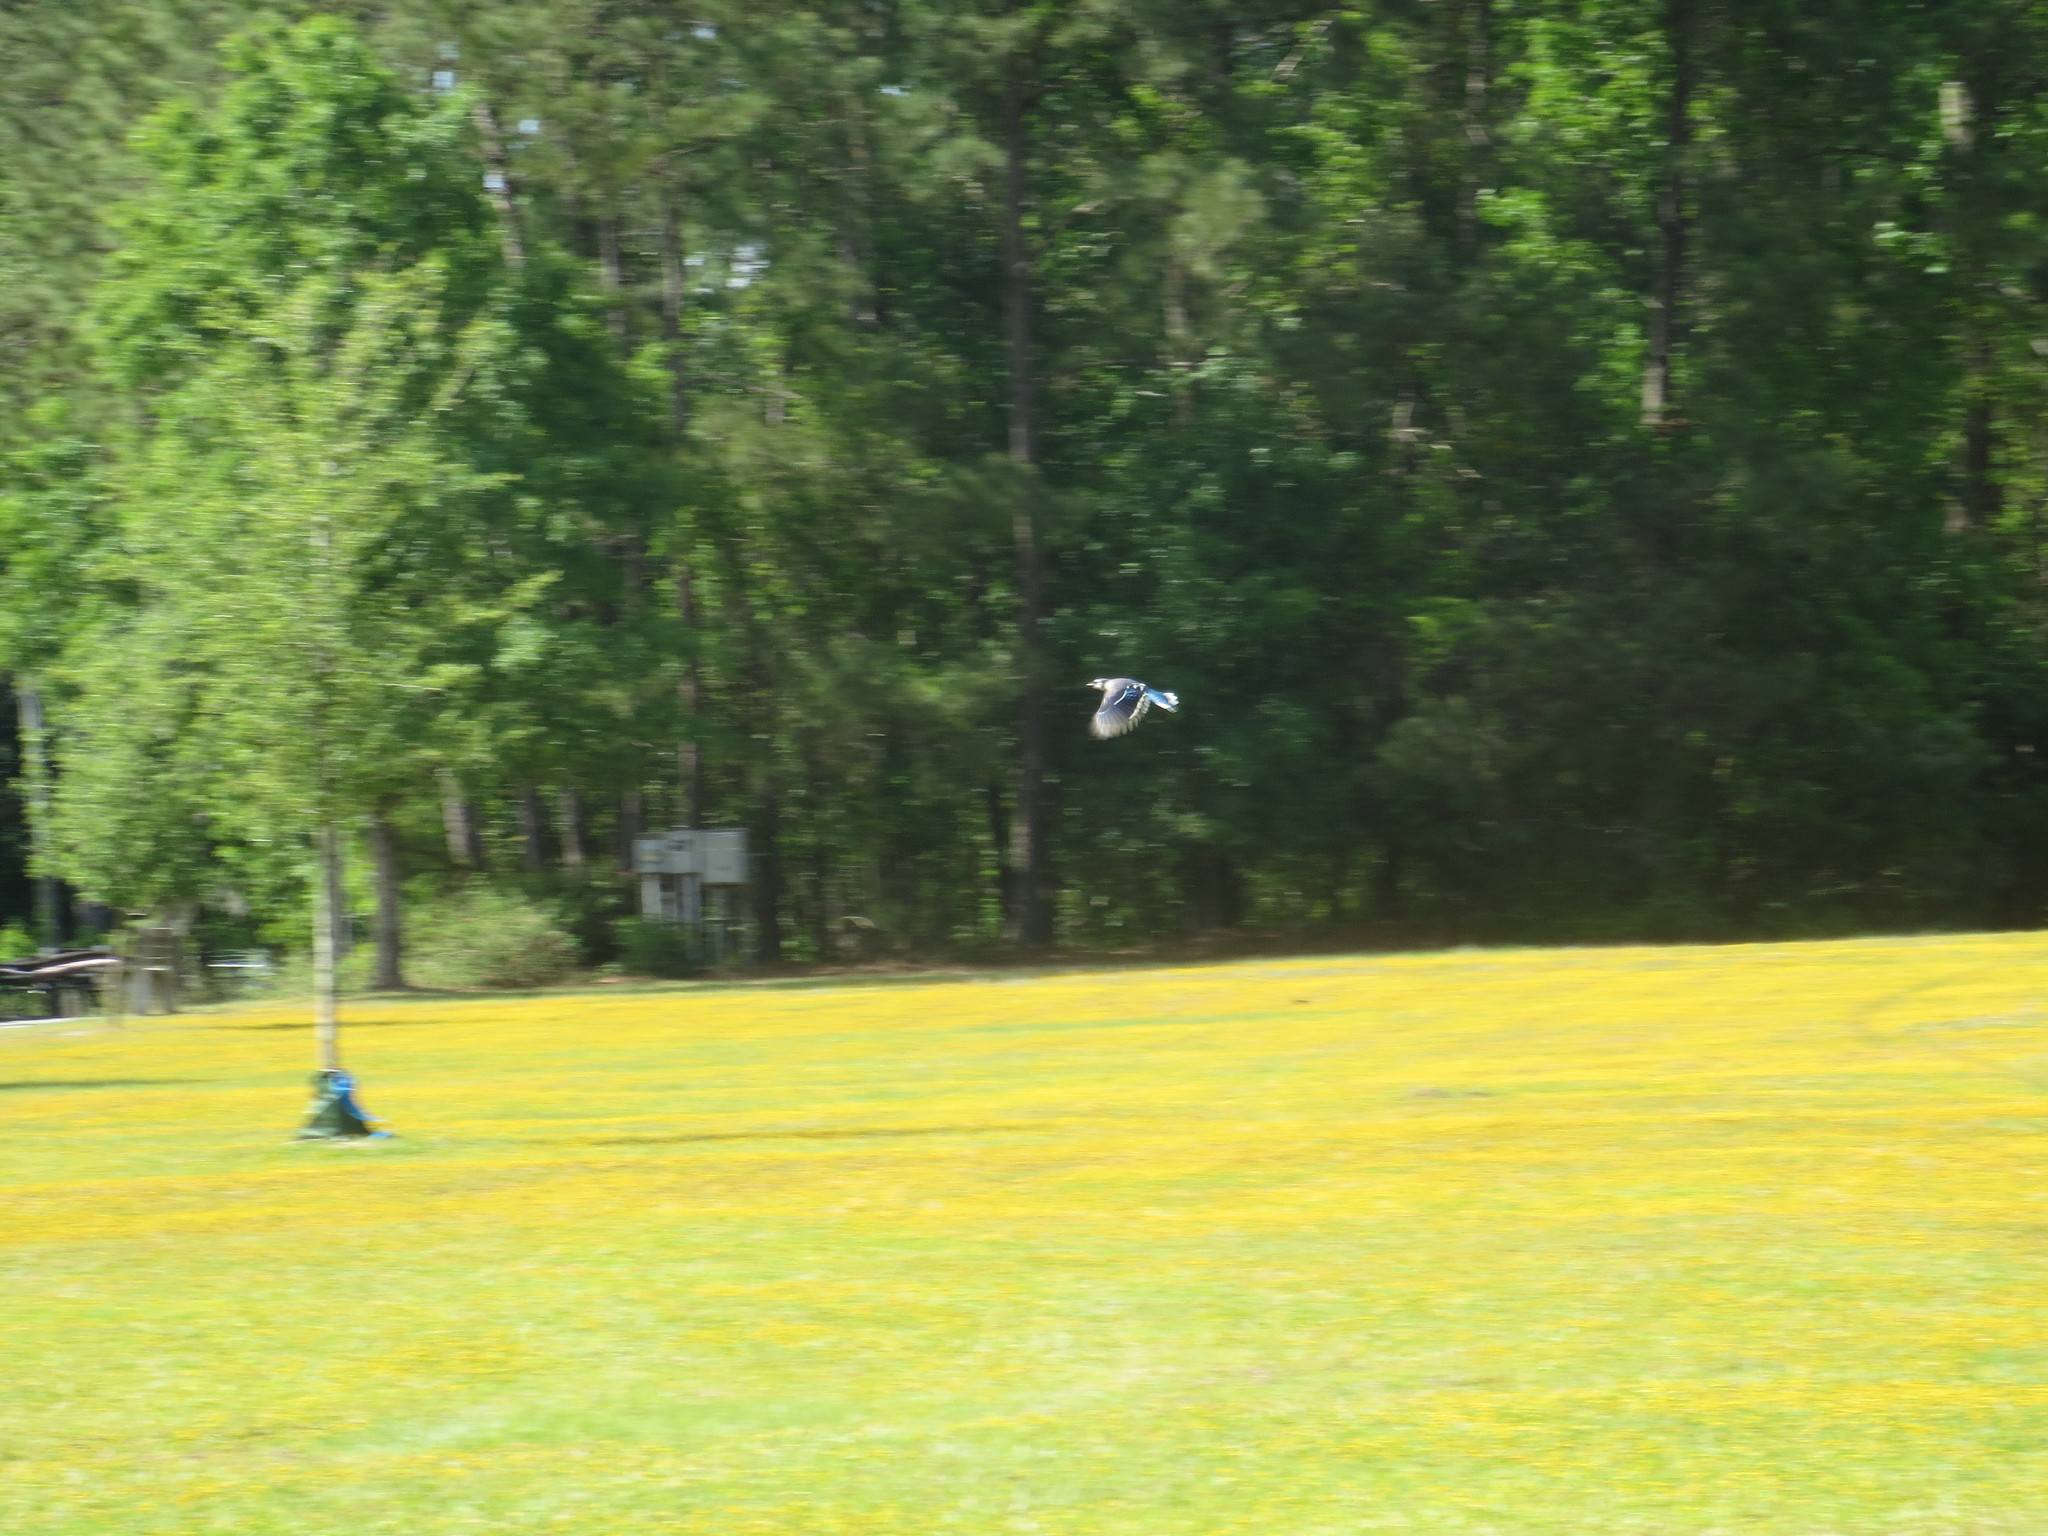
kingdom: Animalia
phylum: Chordata
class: Aves
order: Passeriformes
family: Corvidae
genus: Cyanocitta
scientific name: Cyanocitta cristata
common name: Blue jay
